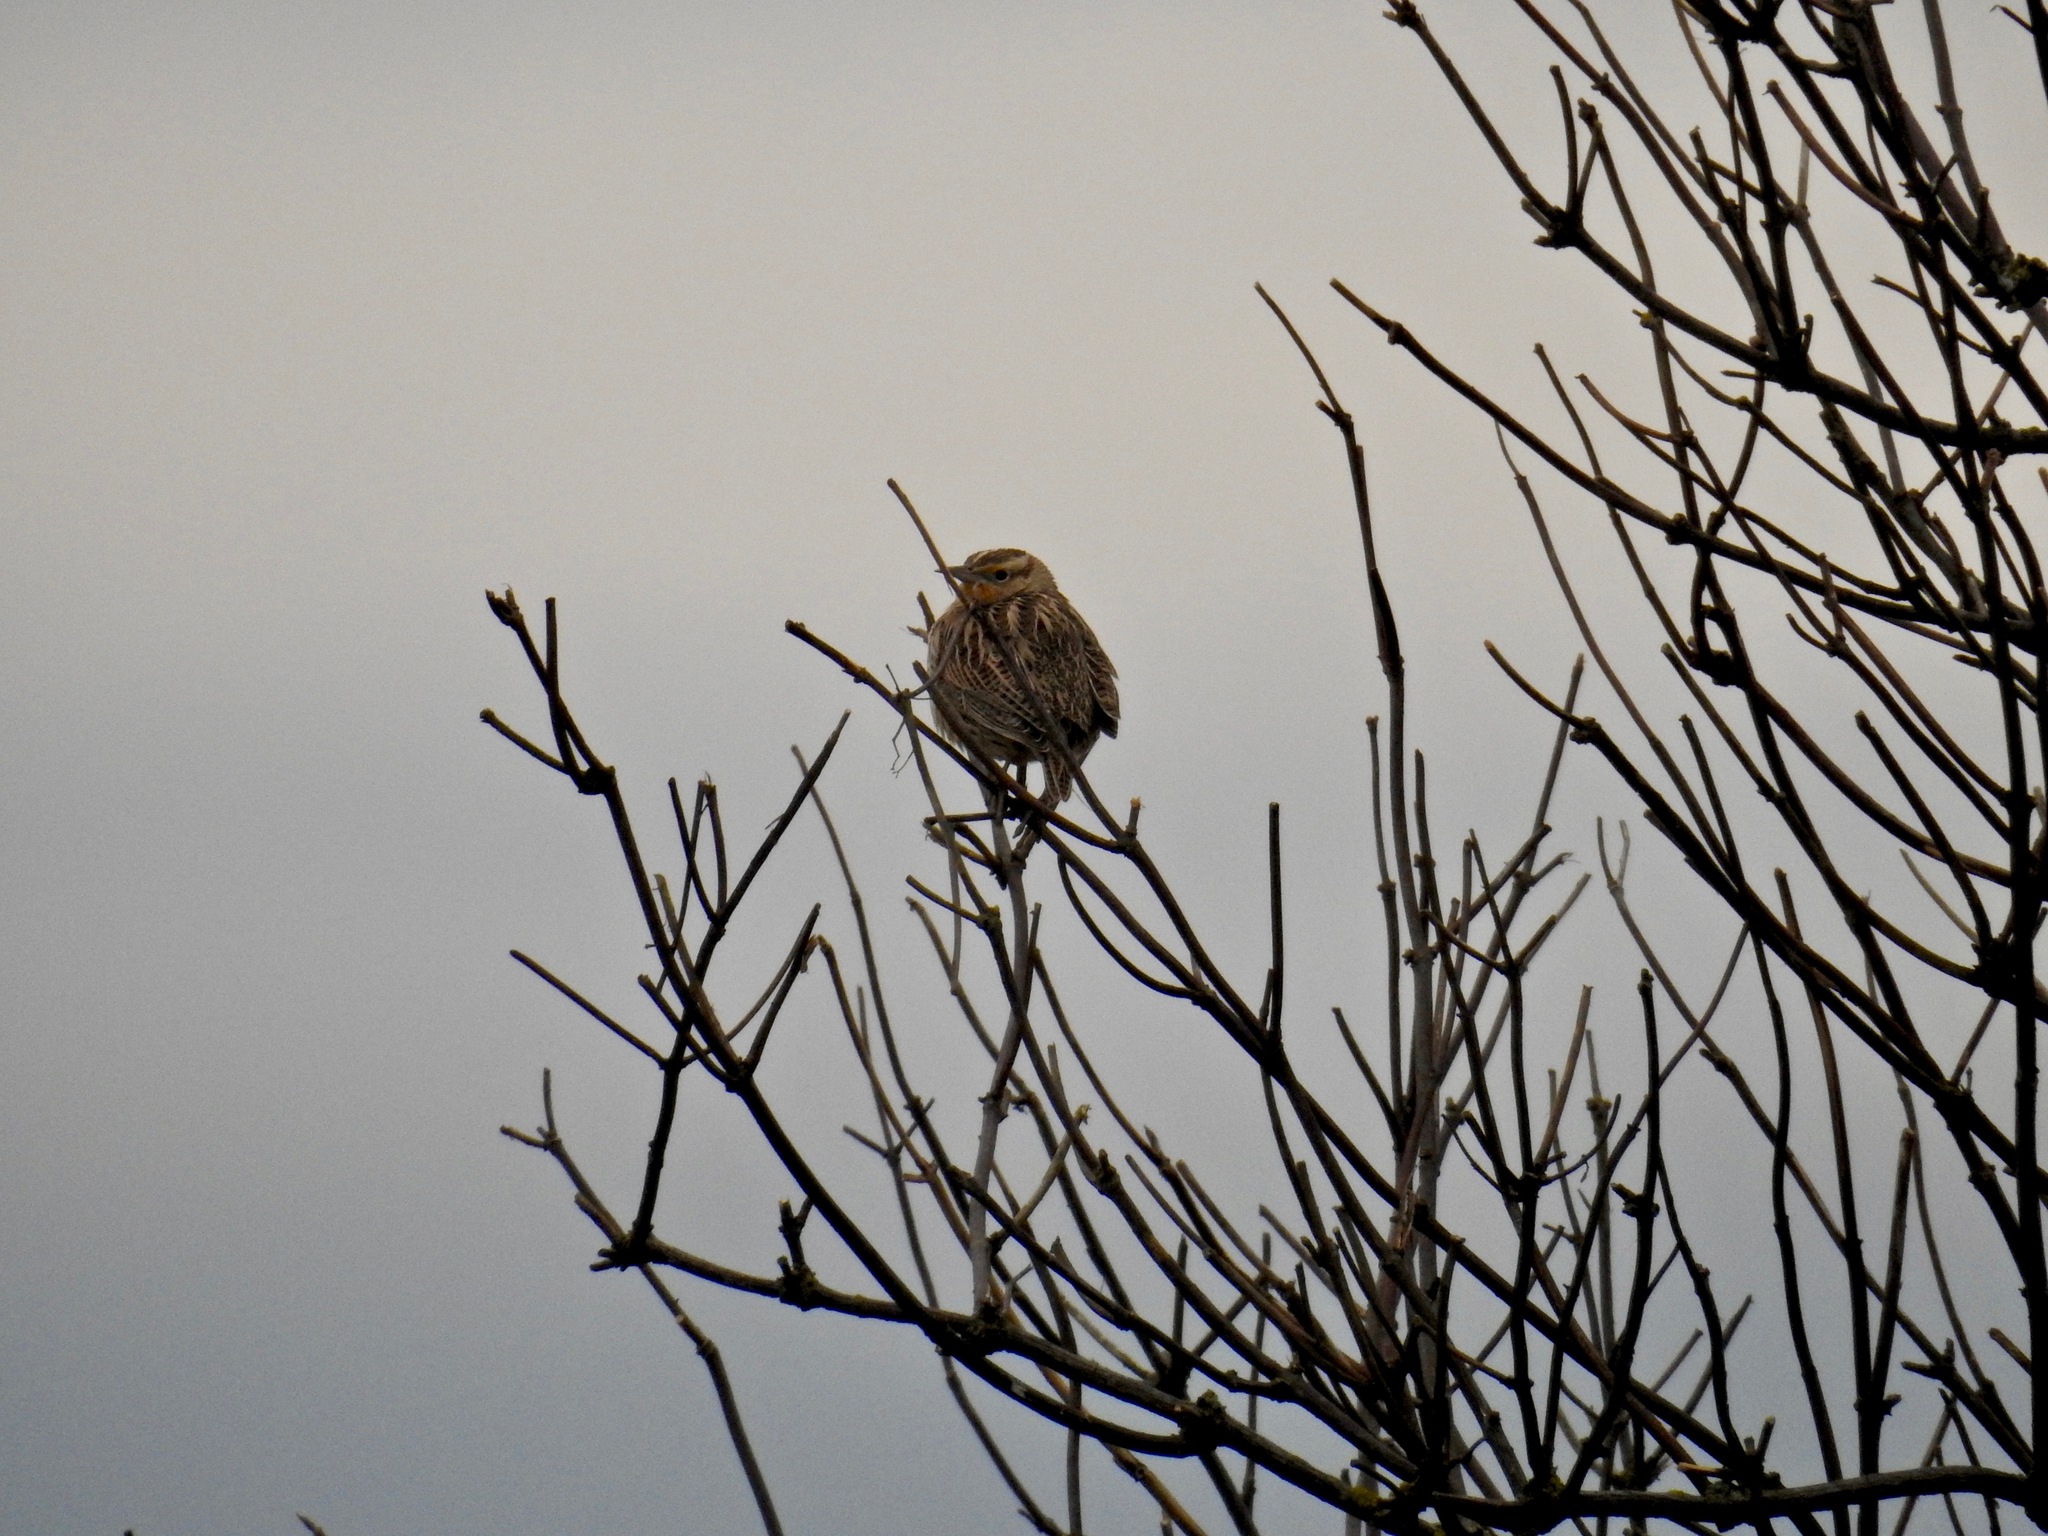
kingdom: Animalia
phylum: Chordata
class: Aves
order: Passeriformes
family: Icteridae
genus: Sturnella
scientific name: Sturnella neglecta
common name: Western meadowlark
